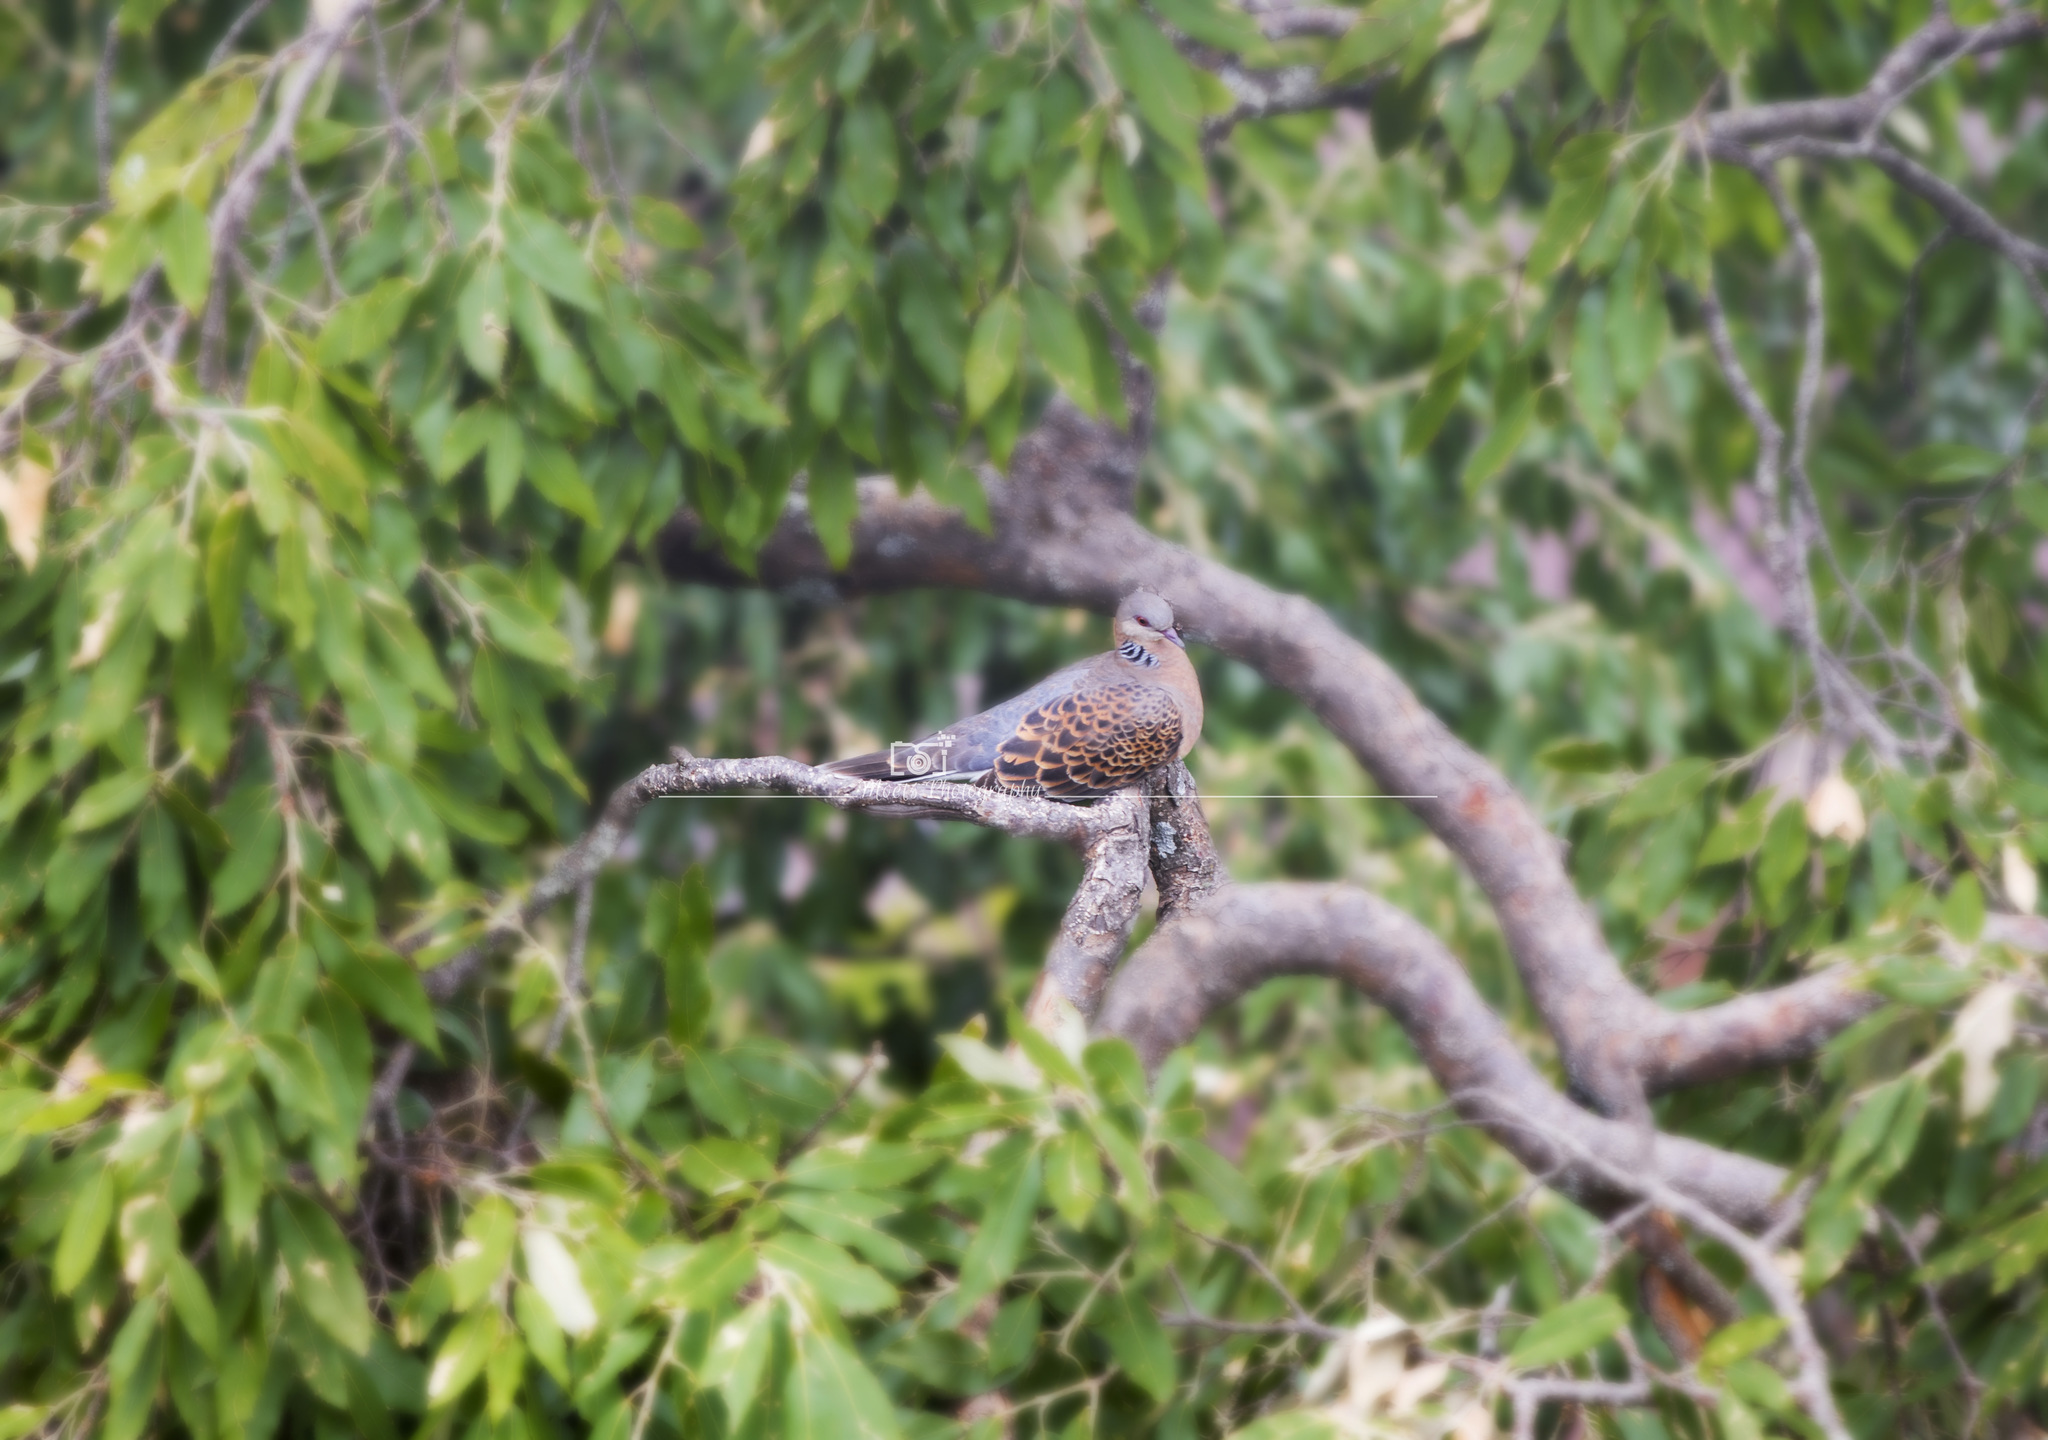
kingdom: Animalia
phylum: Chordata
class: Aves
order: Columbiformes
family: Columbidae
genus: Streptopelia
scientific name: Streptopelia orientalis
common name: Oriental turtle dove
